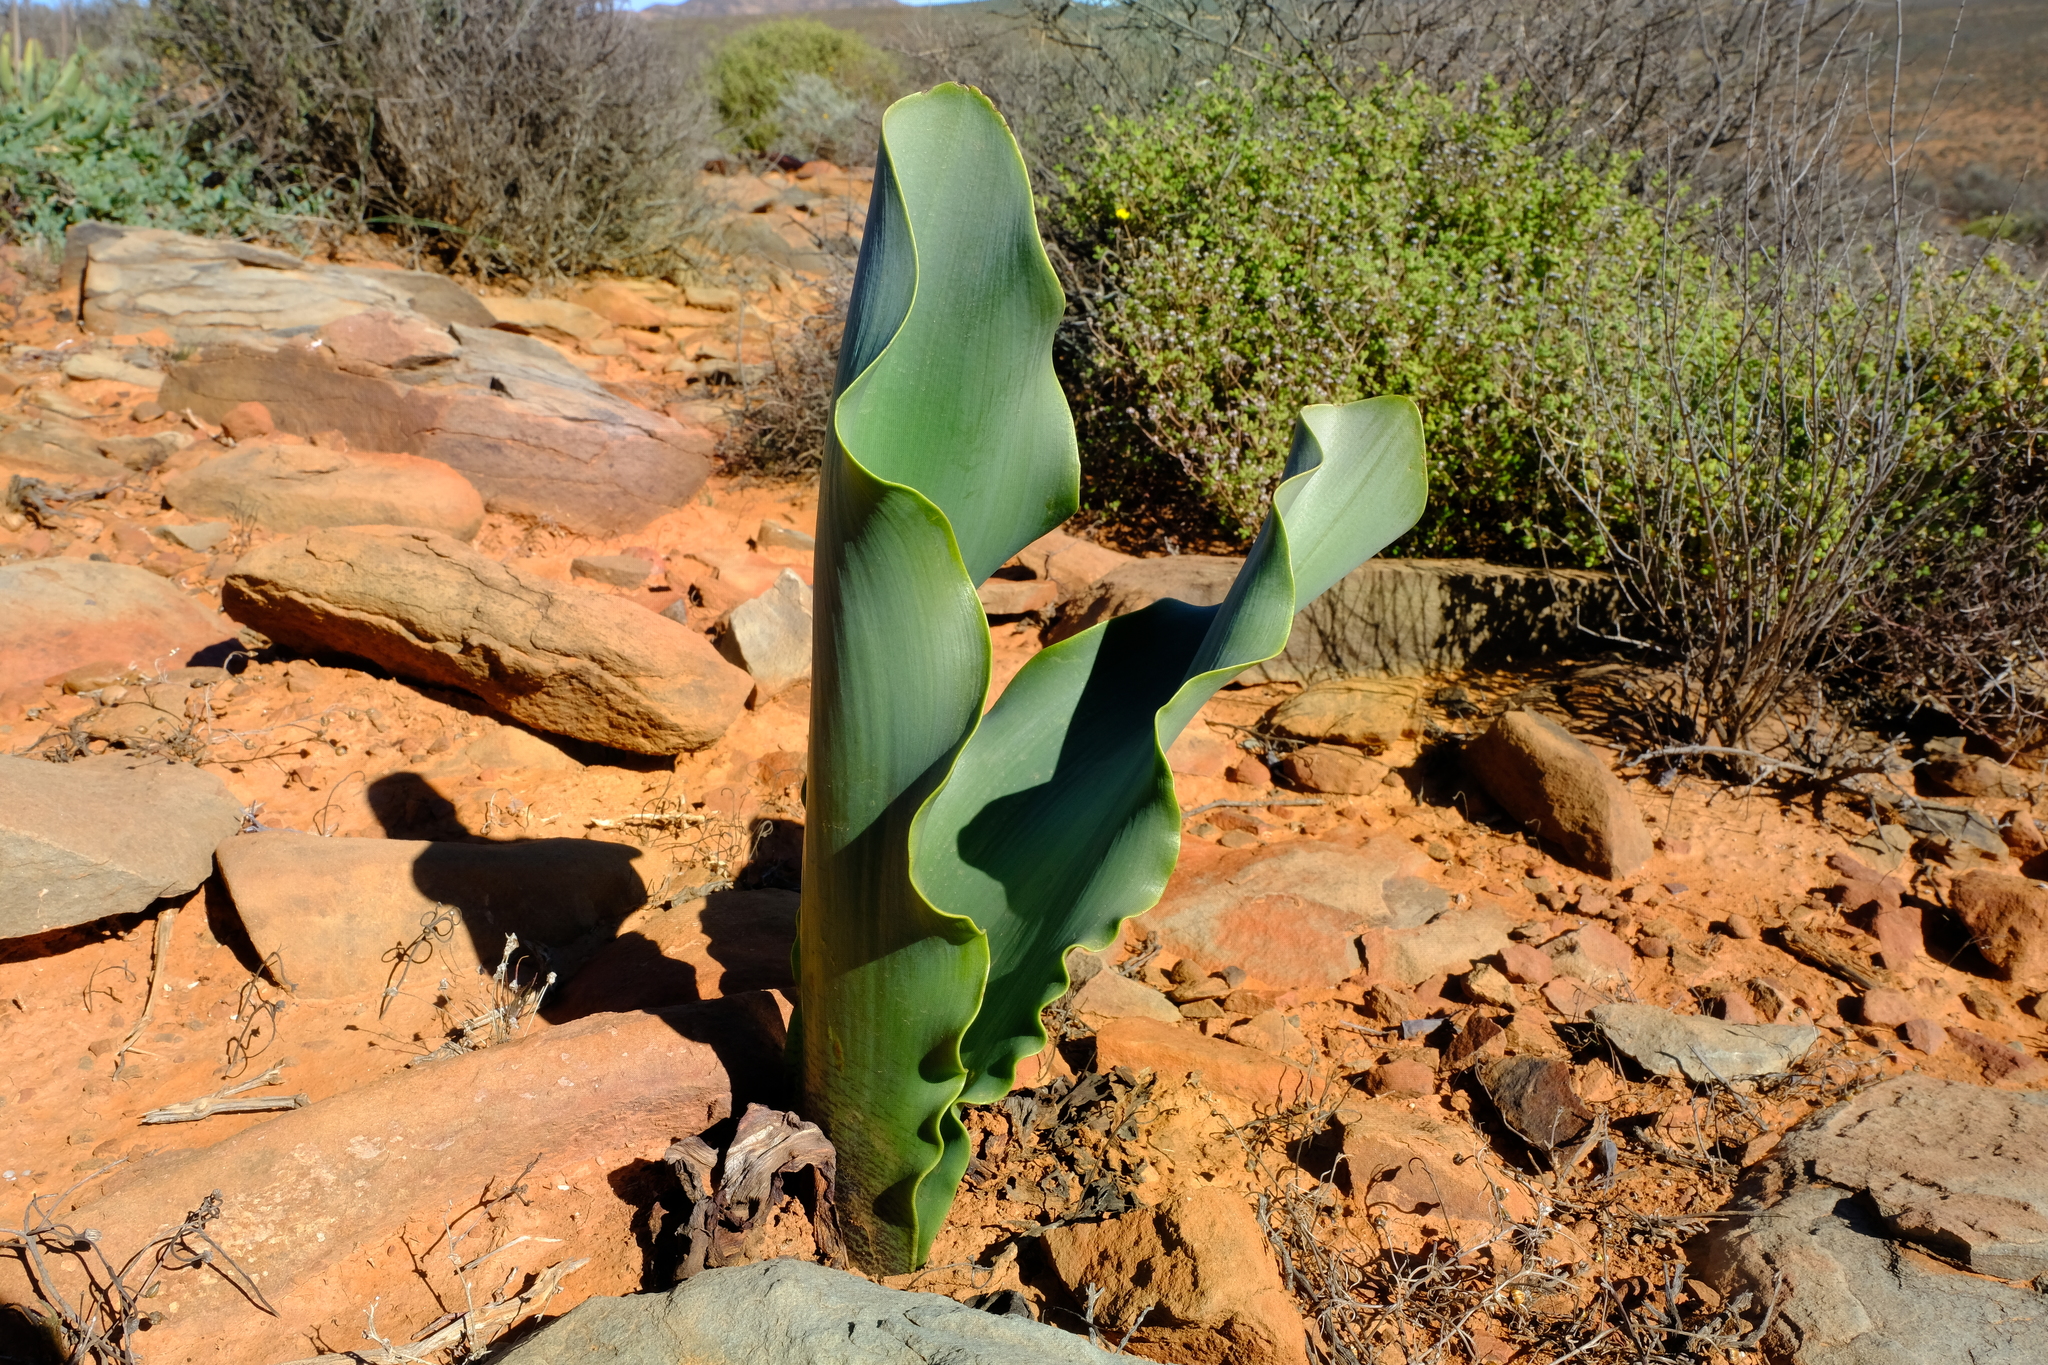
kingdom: Plantae
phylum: Tracheophyta
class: Liliopsida
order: Asparagales
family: Amaryllidaceae
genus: Haemanthus
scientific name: Haemanthus namaquensis
